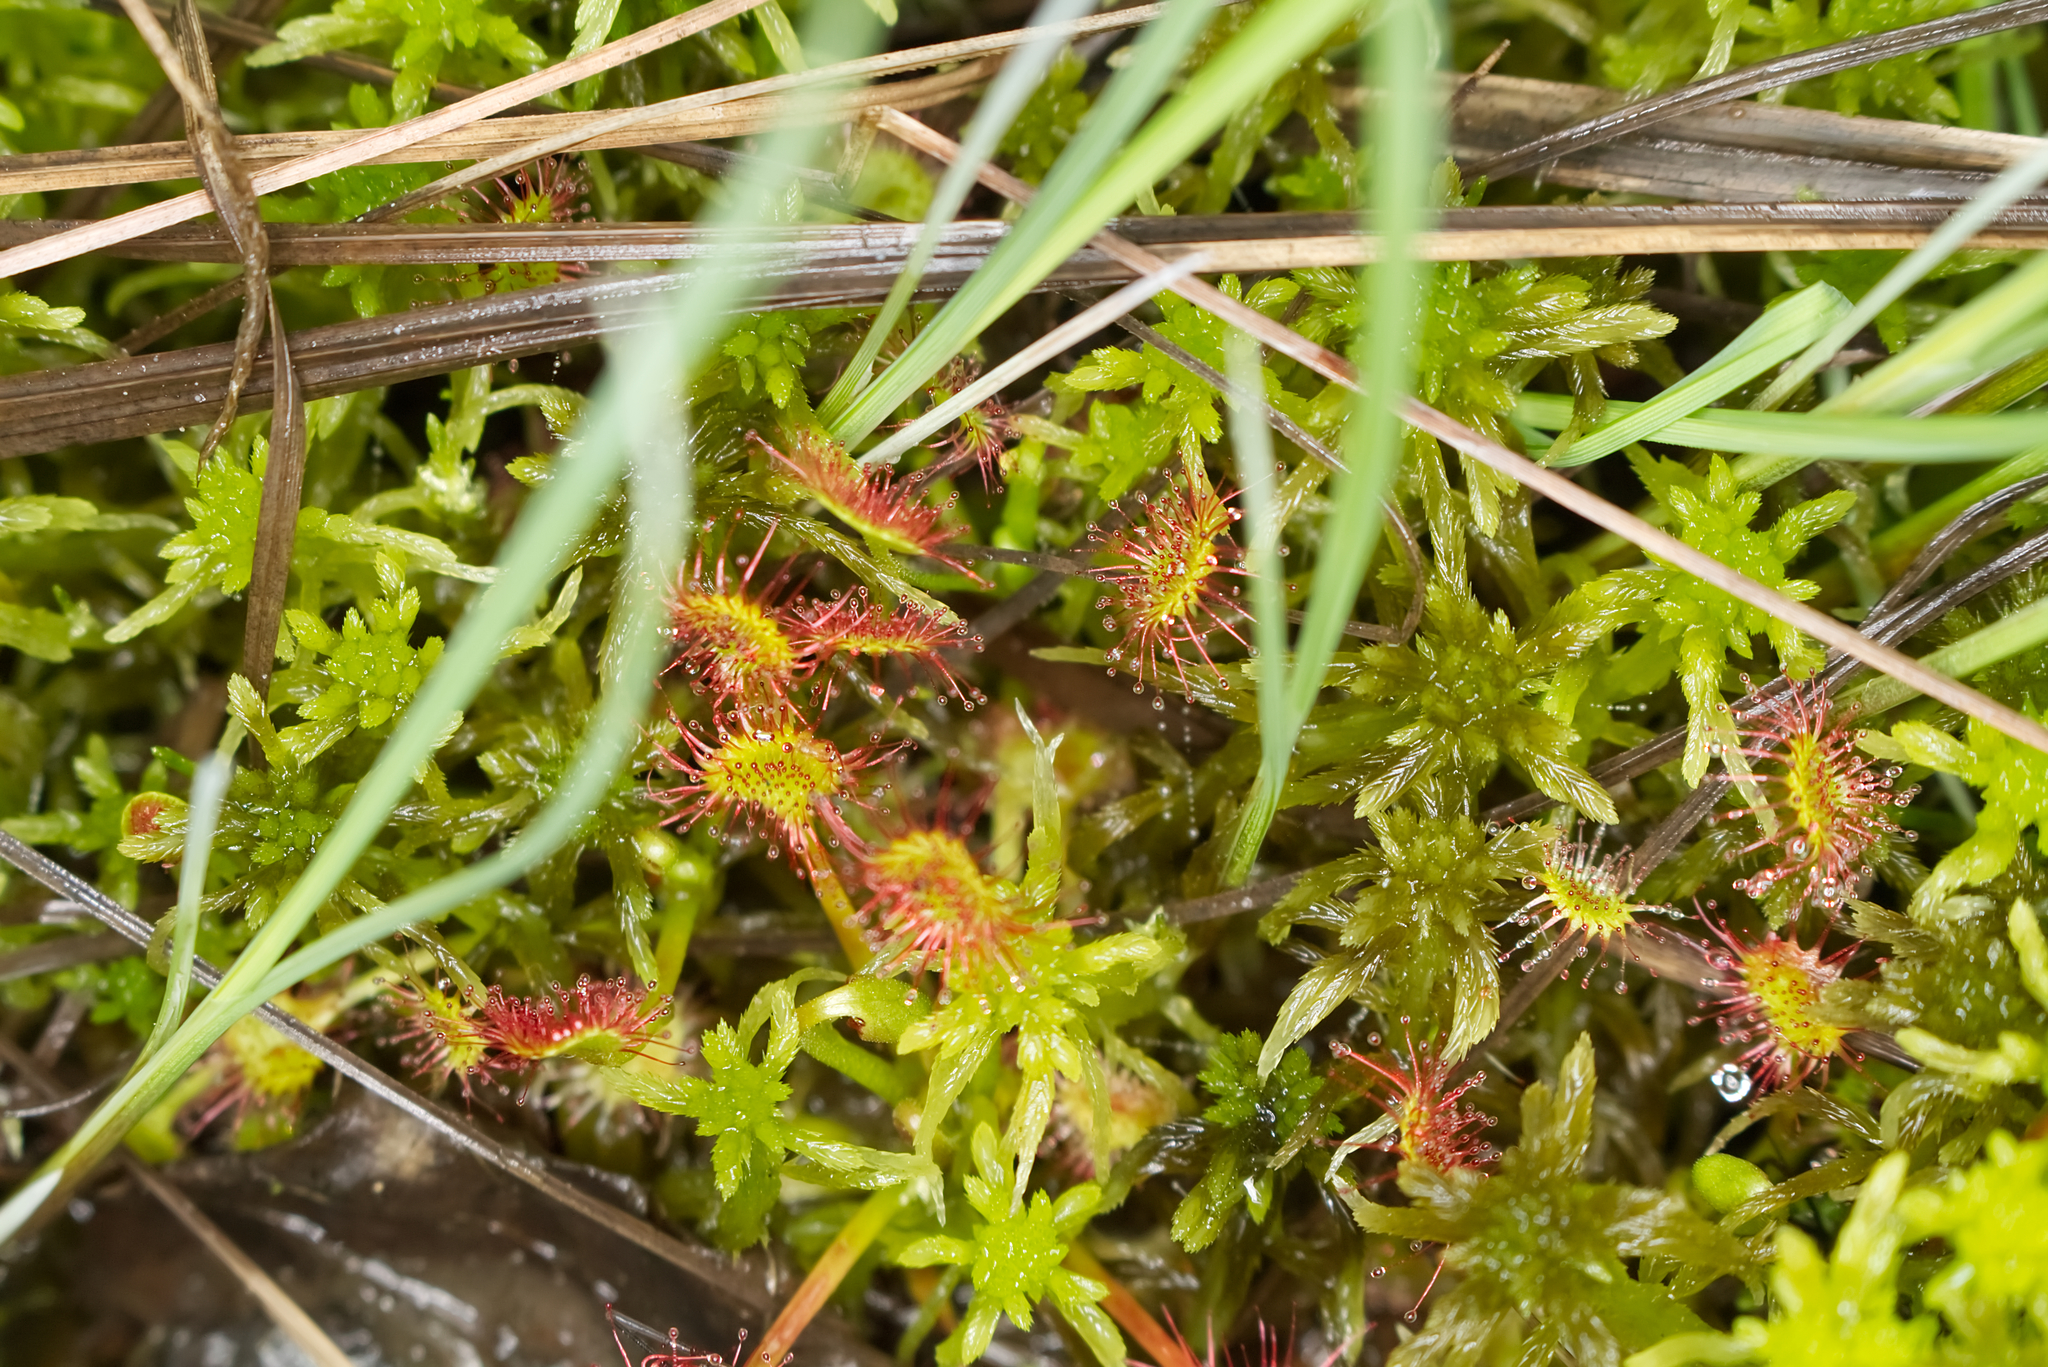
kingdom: Plantae
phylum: Tracheophyta
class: Magnoliopsida
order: Caryophyllales
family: Droseraceae
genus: Drosera
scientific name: Drosera rotundifolia
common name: Round-leaved sundew
